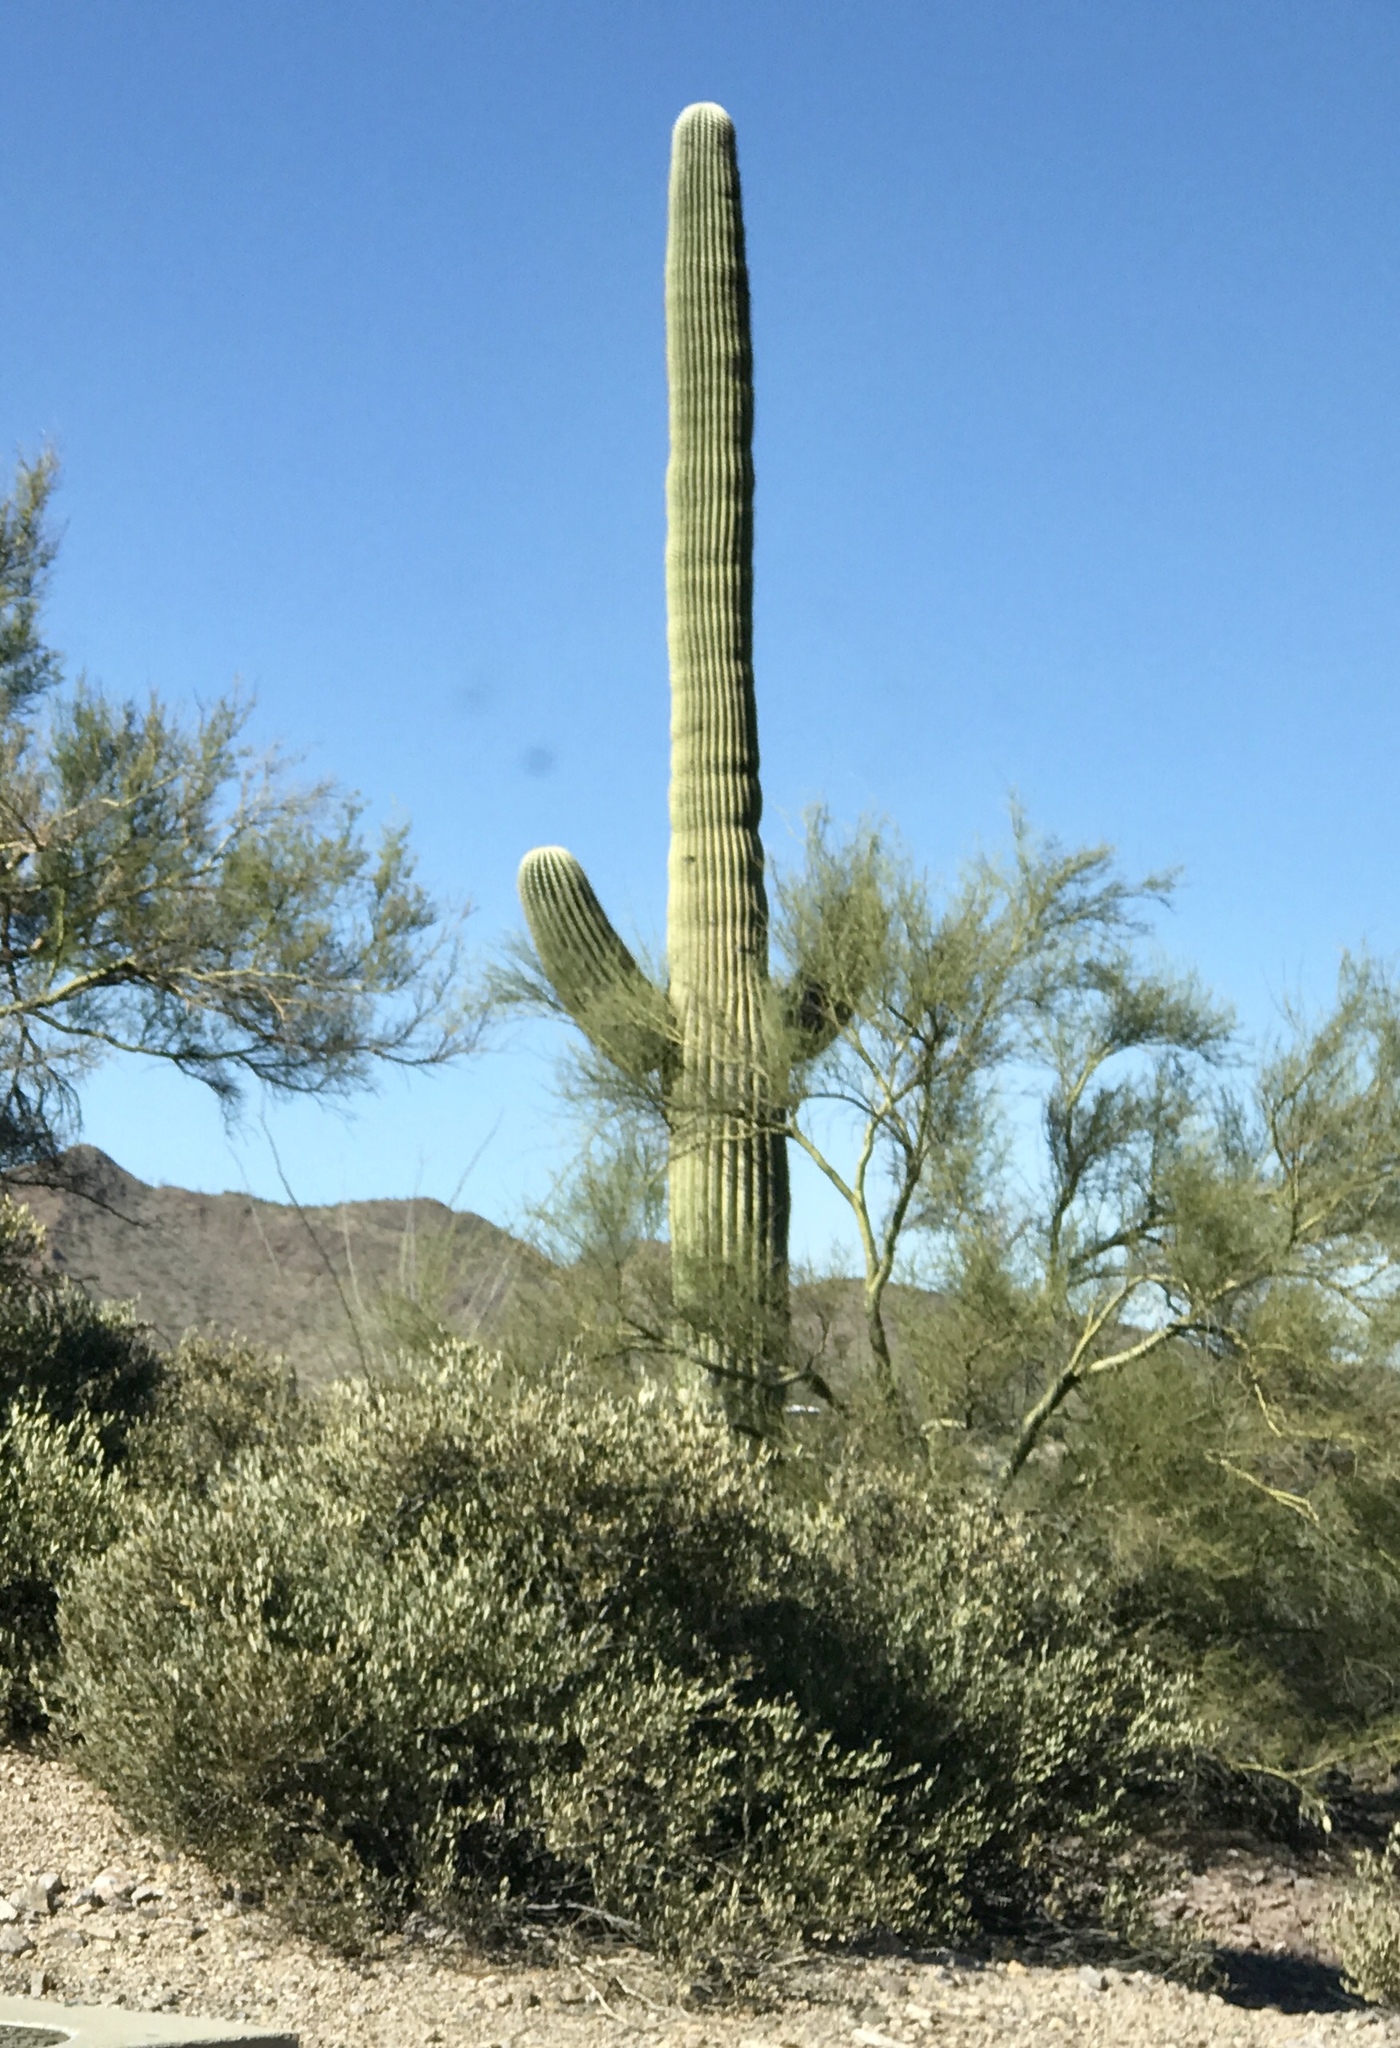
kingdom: Plantae
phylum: Tracheophyta
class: Magnoliopsida
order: Caryophyllales
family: Cactaceae
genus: Carnegiea
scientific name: Carnegiea gigantea
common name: Saguaro
